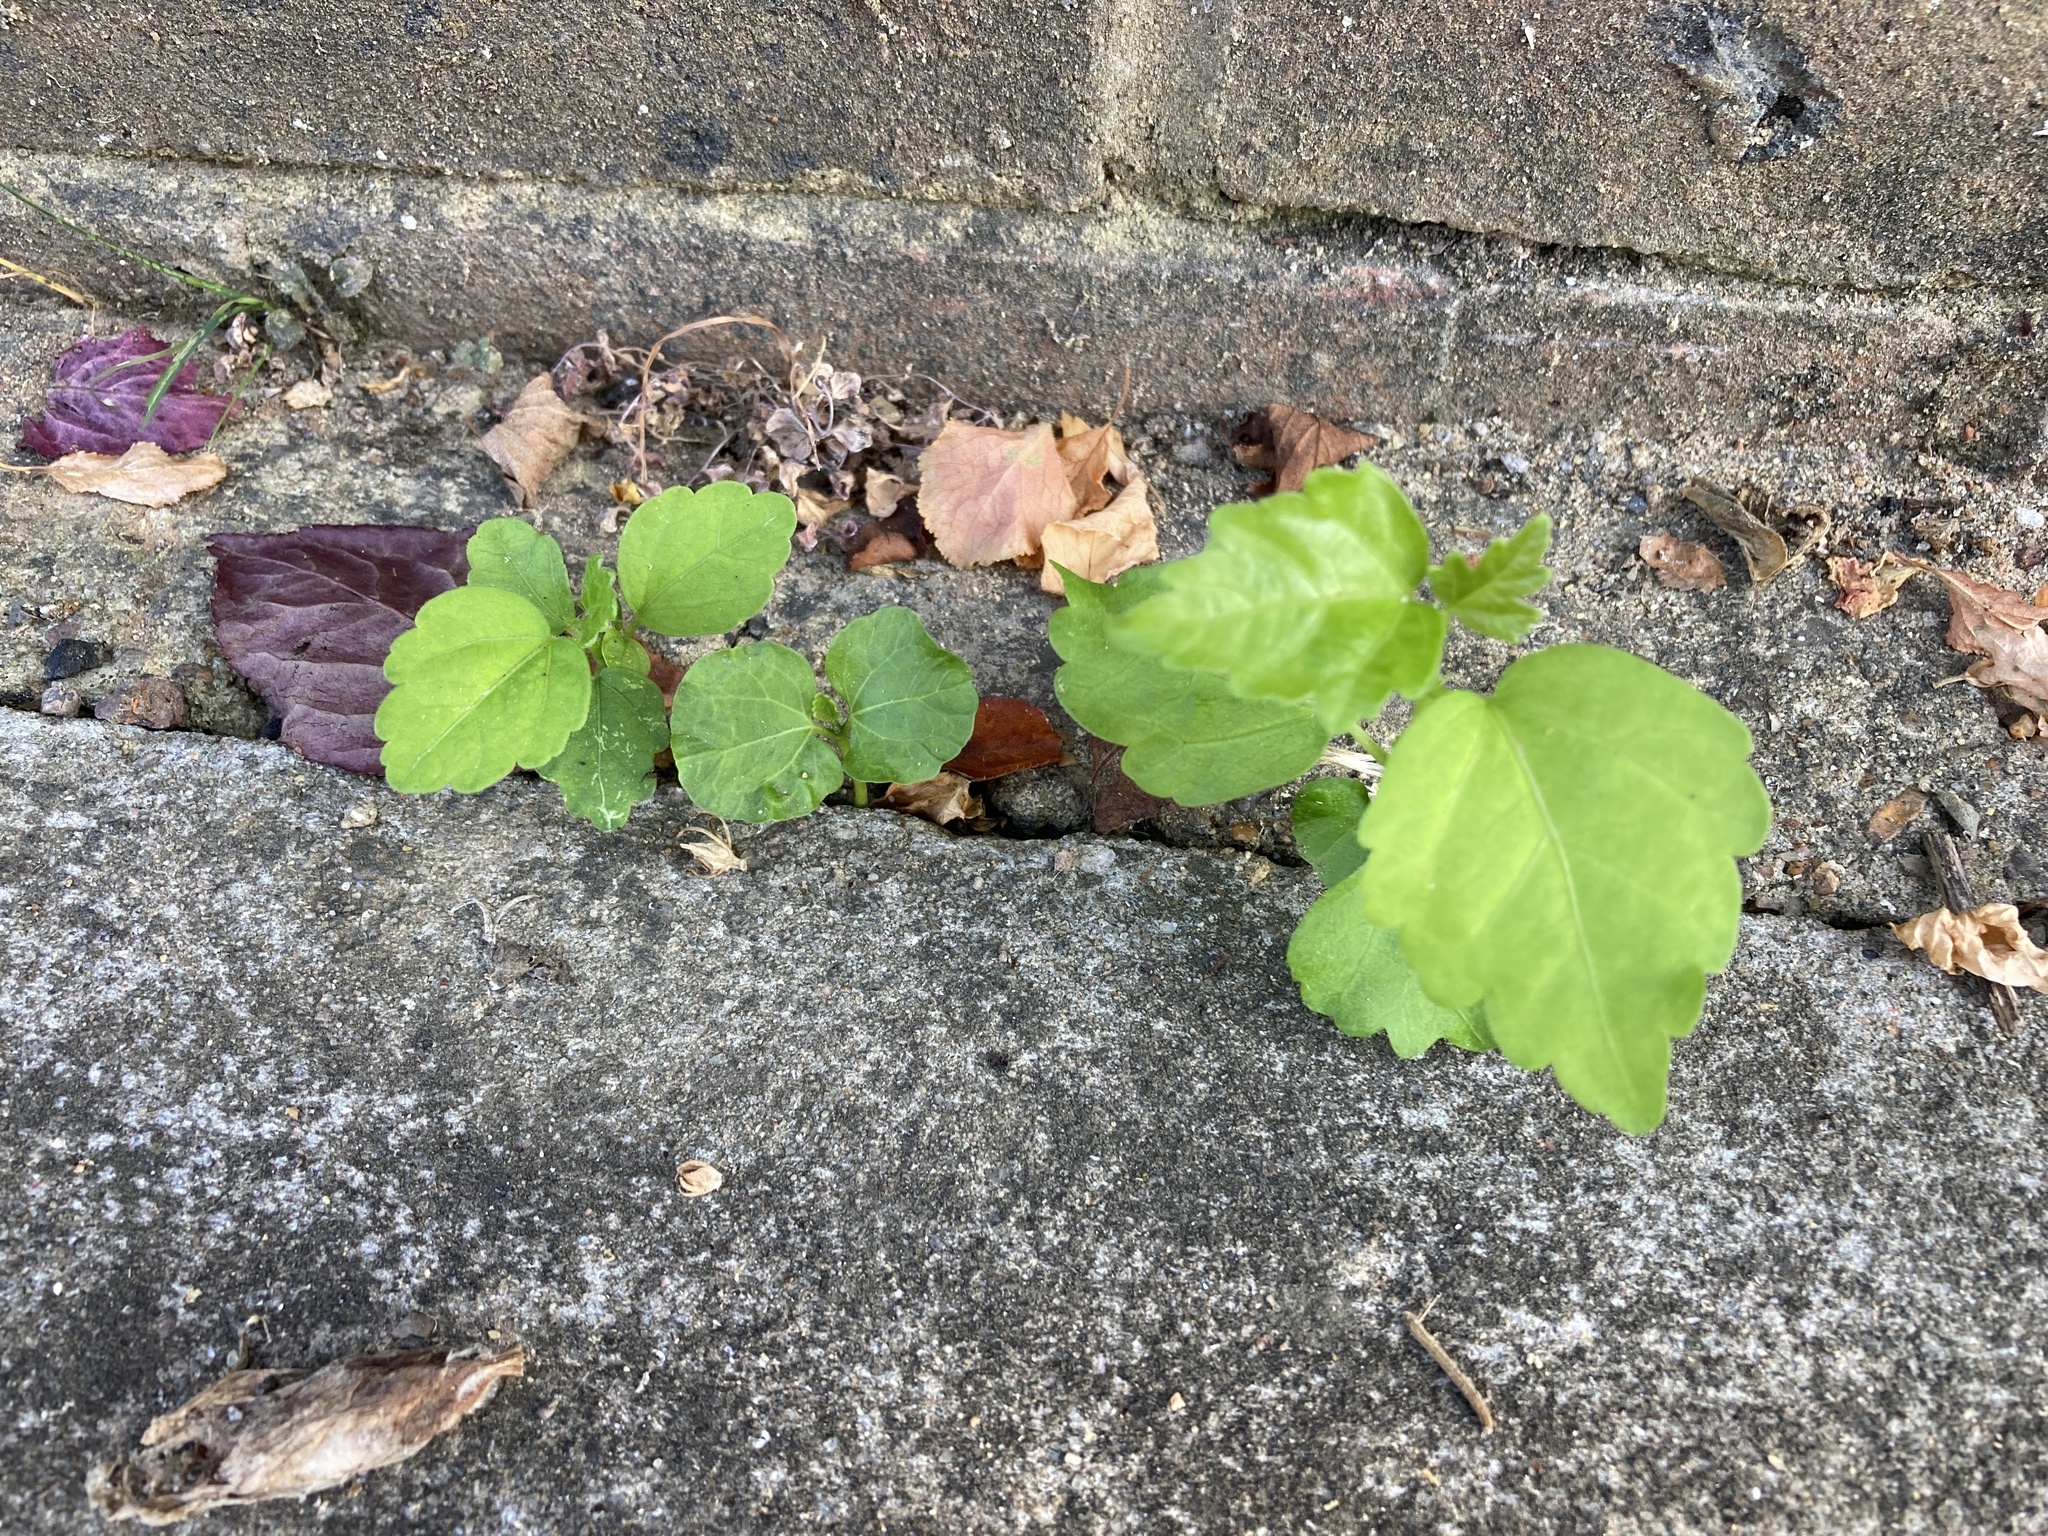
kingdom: Plantae
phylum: Tracheophyta
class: Magnoliopsida
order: Malvales
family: Malvaceae
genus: Hibiscus
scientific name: Hibiscus syriacus
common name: Syrian ketmia
